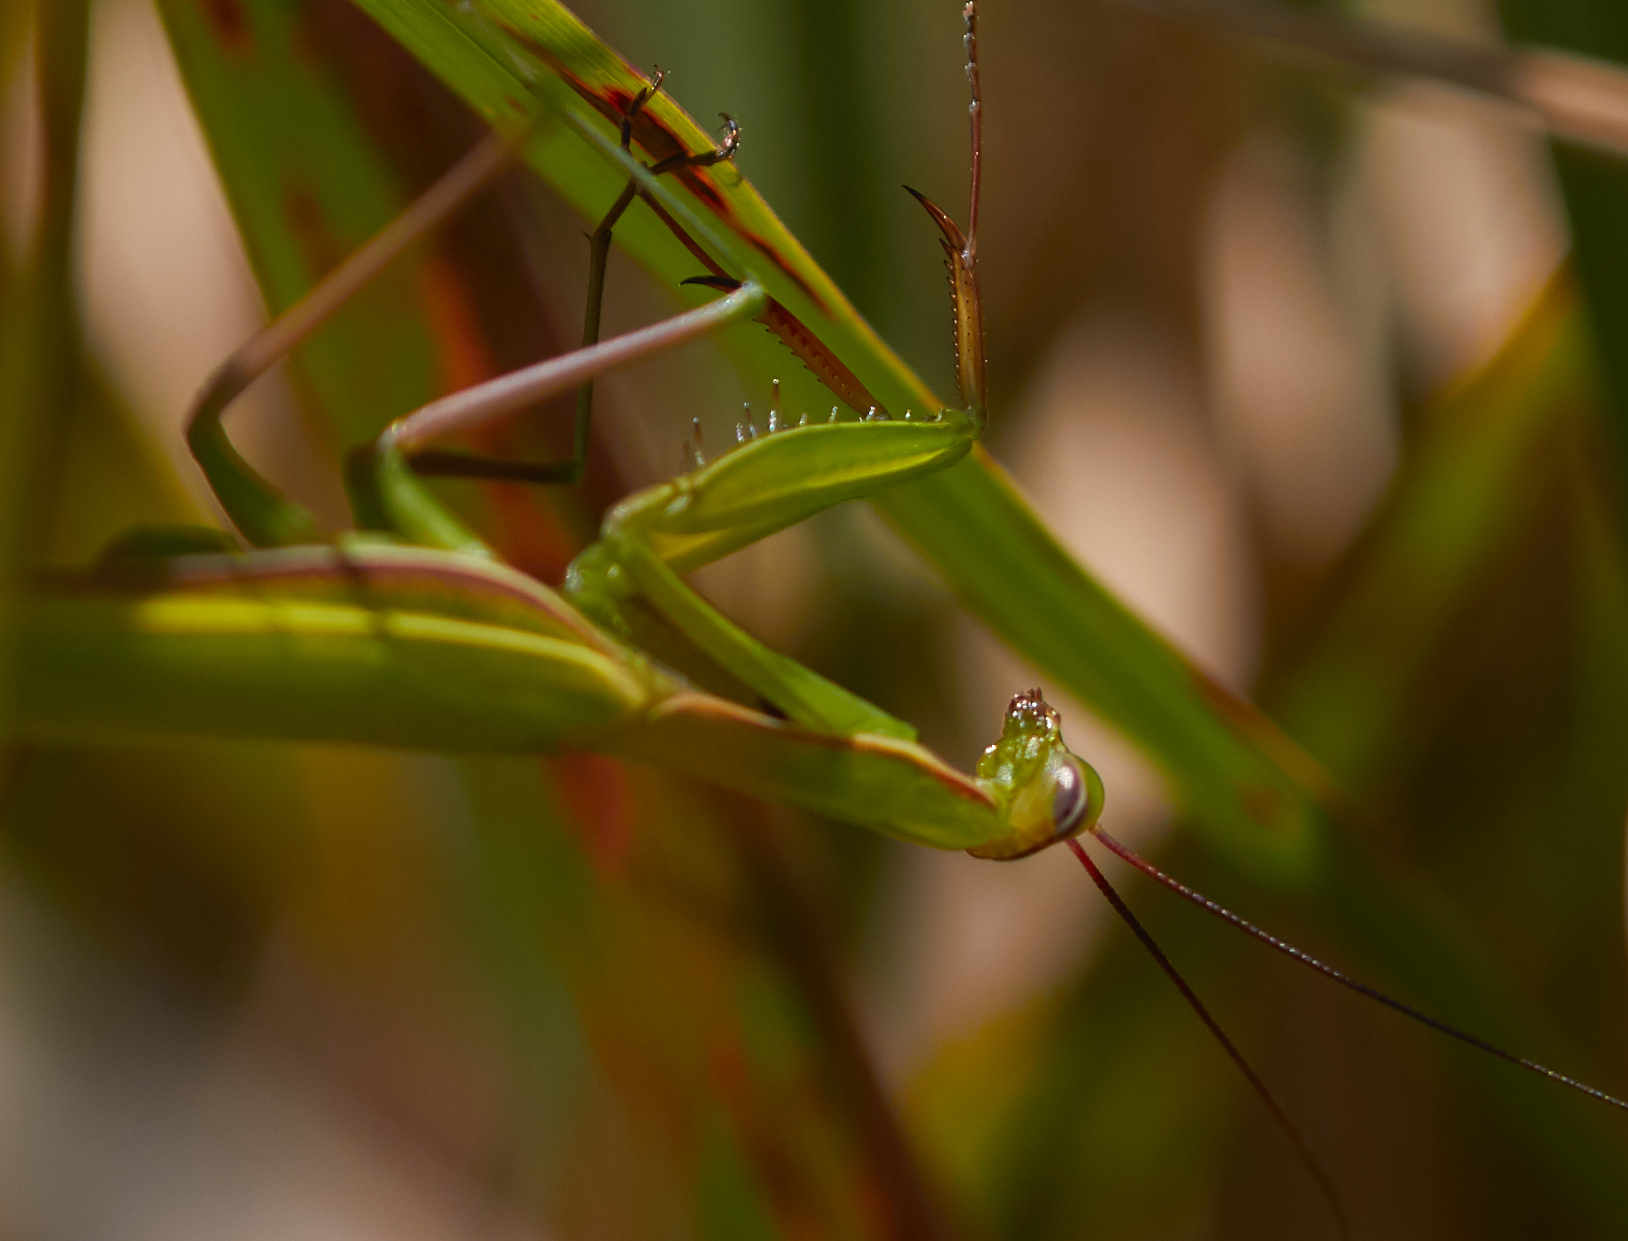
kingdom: Animalia
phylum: Arthropoda
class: Insecta
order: Mantodea
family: Mantidae
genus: Mantis
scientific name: Mantis religiosa
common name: Praying mantis
